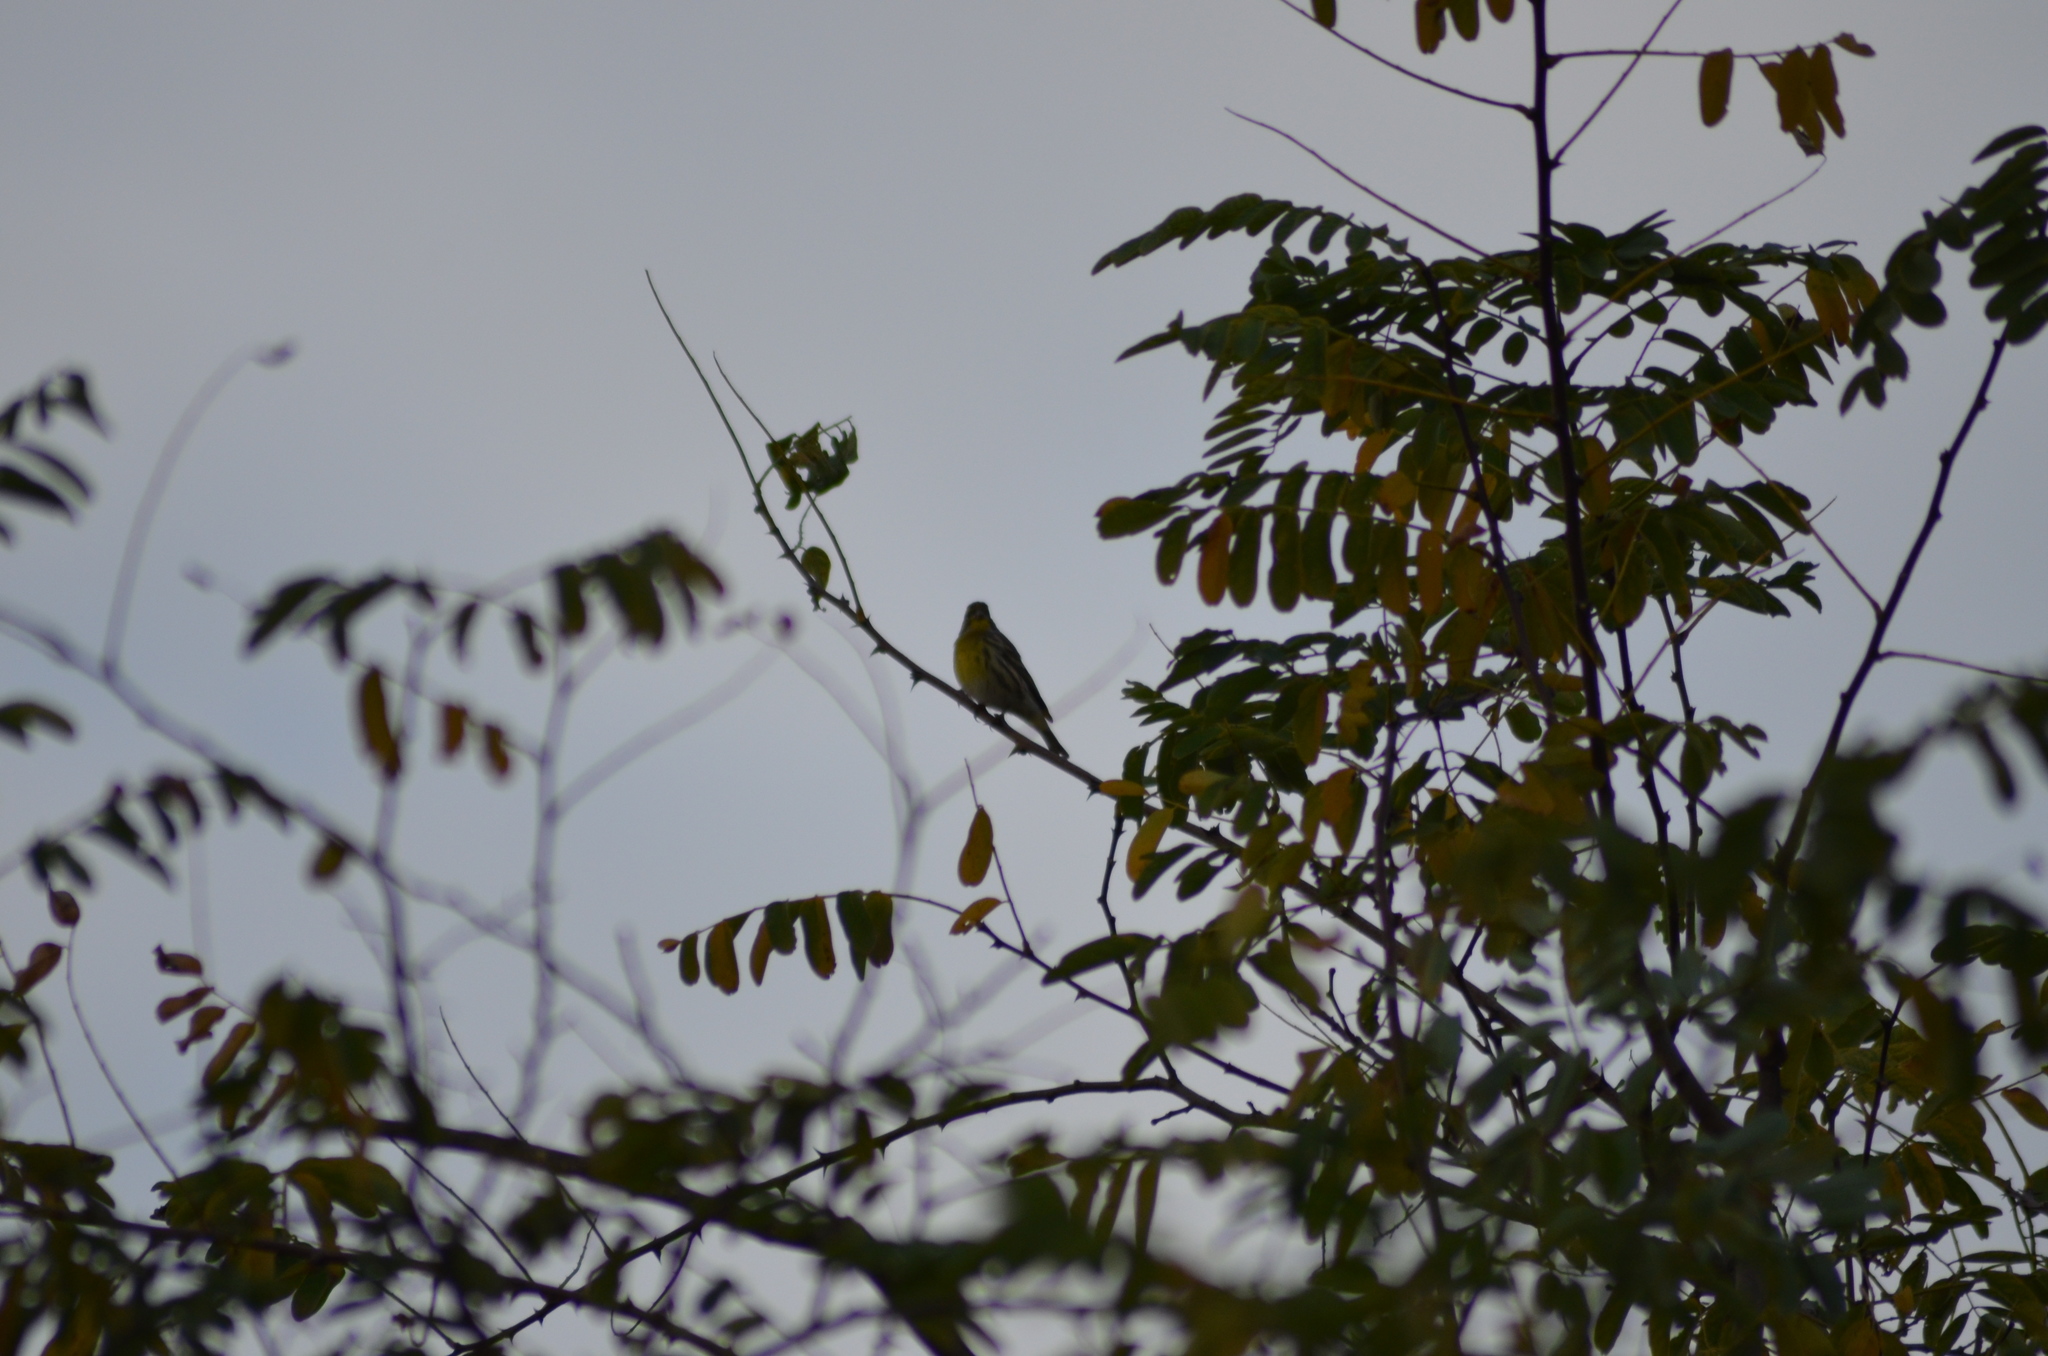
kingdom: Animalia
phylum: Chordata
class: Aves
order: Passeriformes
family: Fringillidae
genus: Serinus
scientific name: Serinus serinus
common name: European serin
